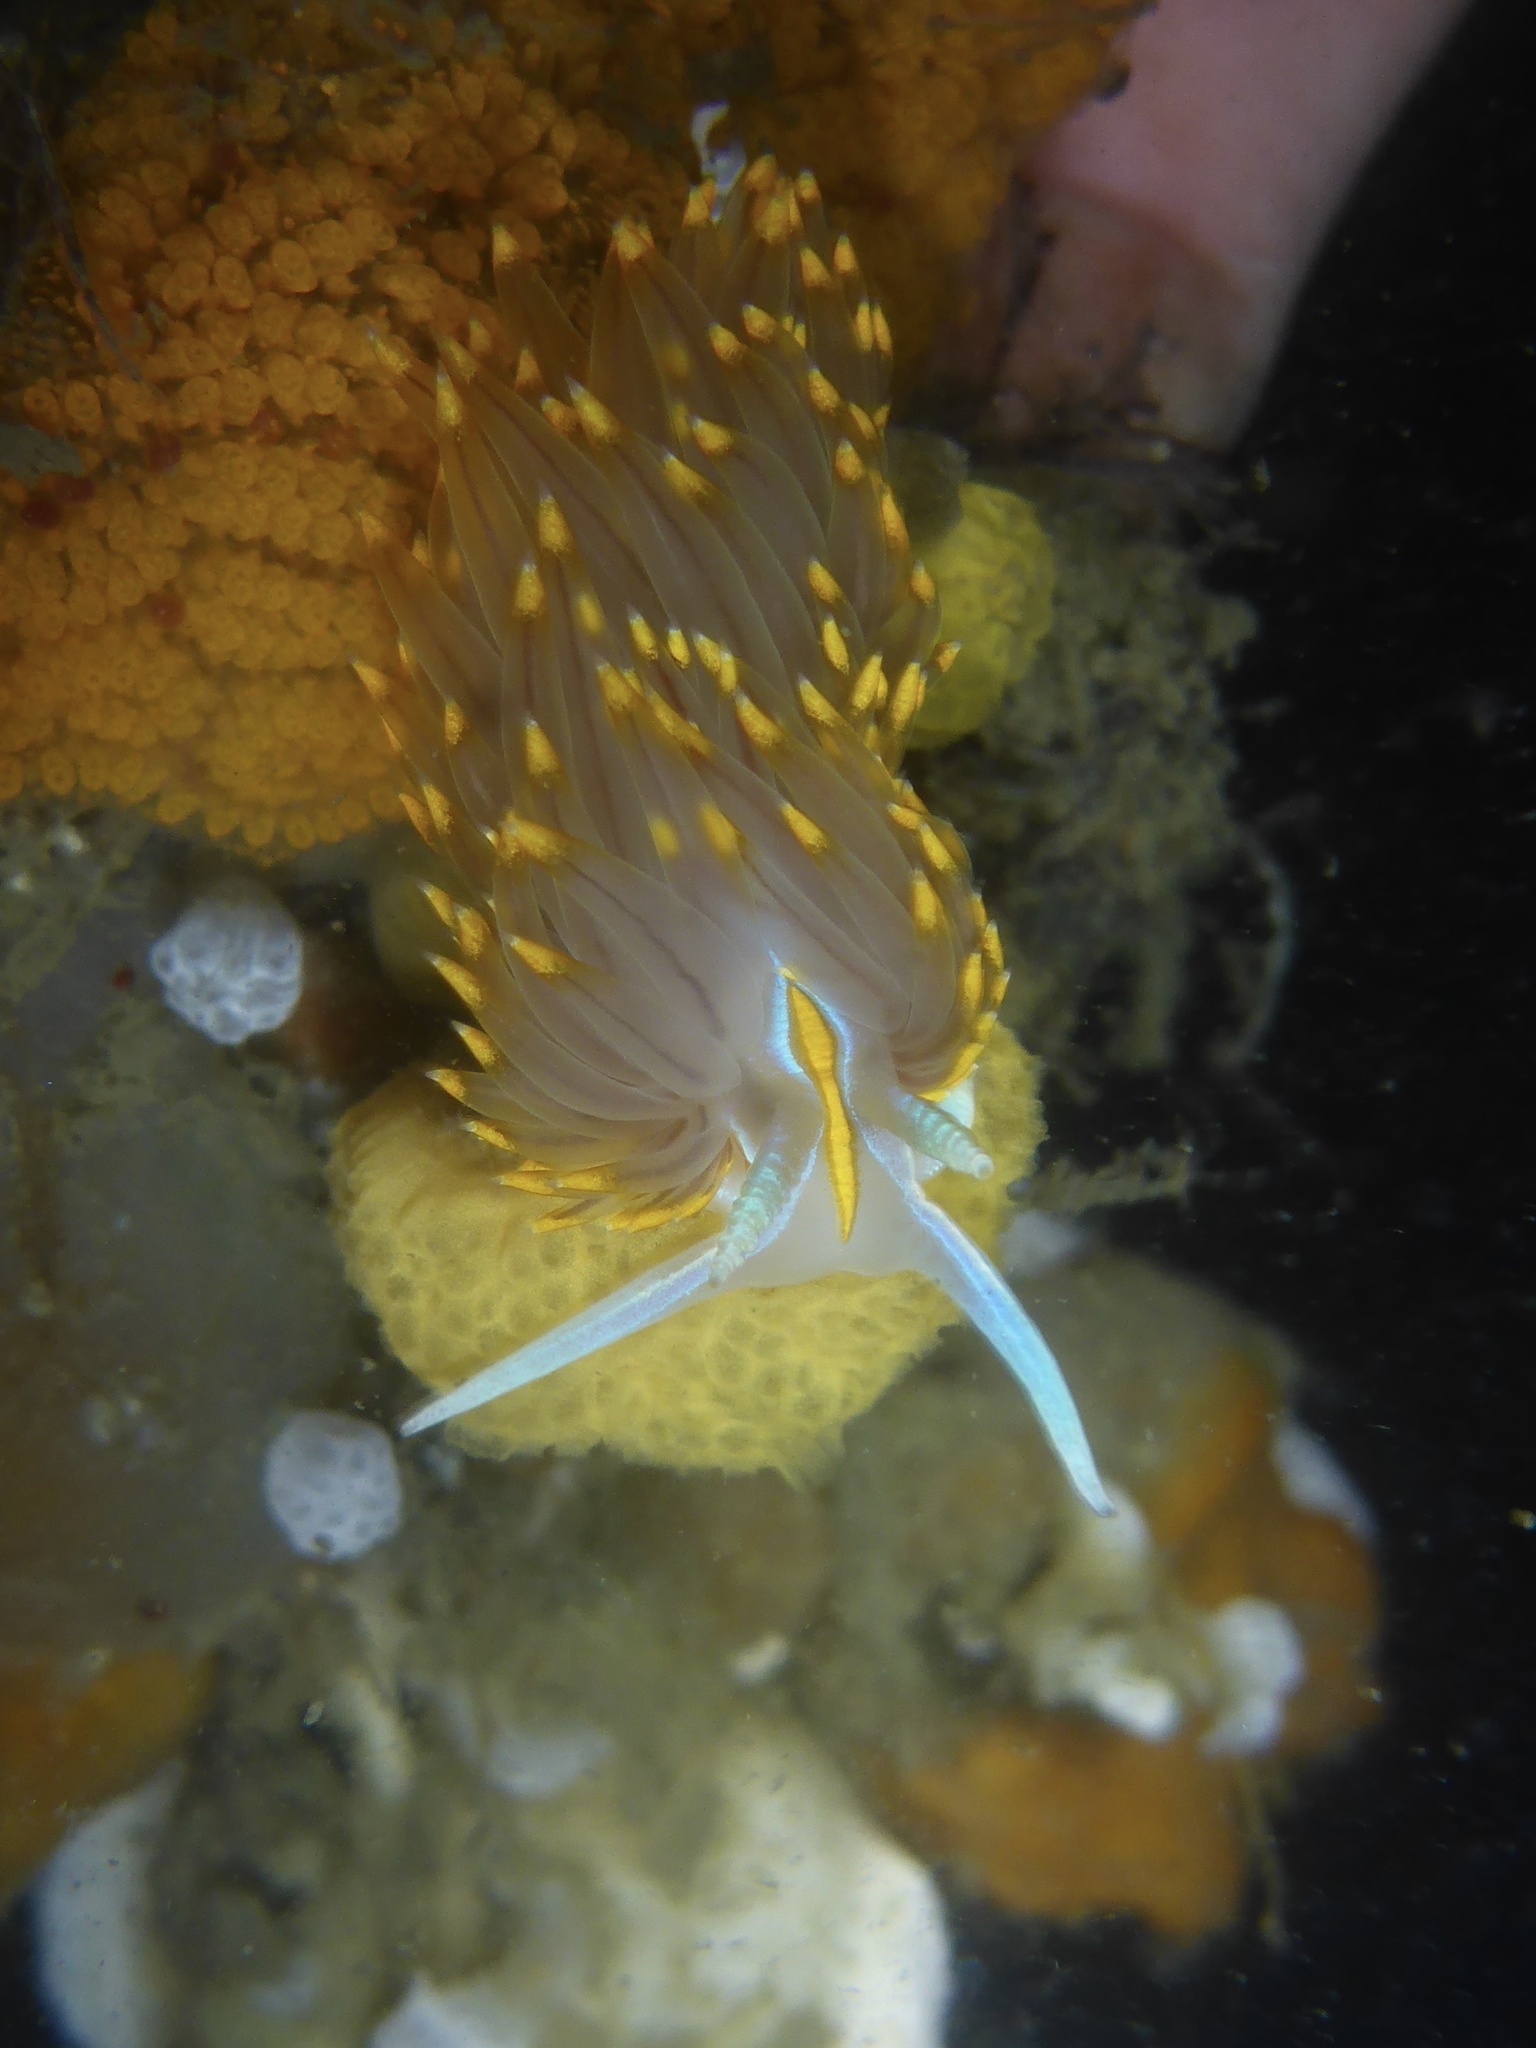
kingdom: Animalia
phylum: Mollusca
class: Gastropoda
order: Nudibranchia
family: Myrrhinidae
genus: Hermissenda
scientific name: Hermissenda opalescens
